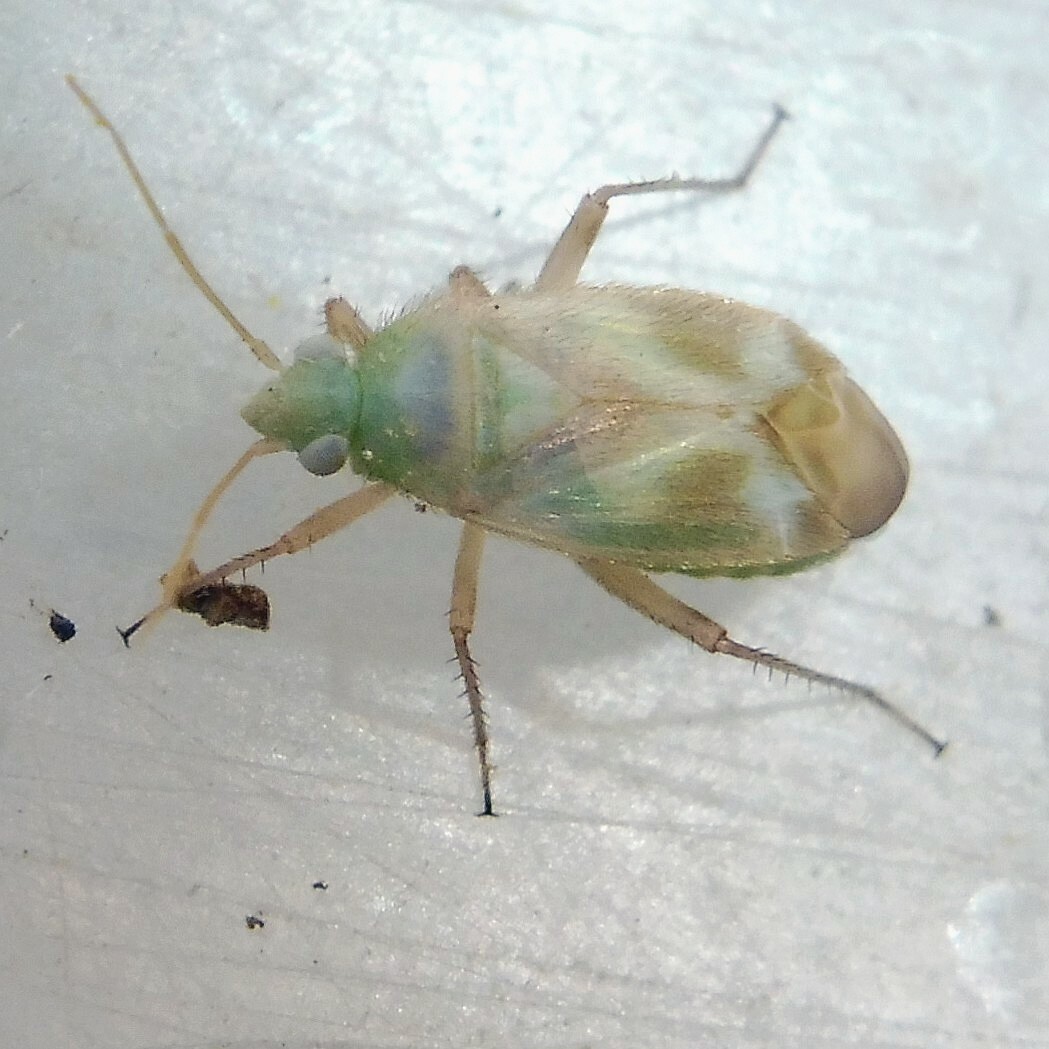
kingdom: Animalia
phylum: Arthropoda
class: Insecta
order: Hemiptera
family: Miridae
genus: Megalocoleus
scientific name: Megalocoleus molliculus
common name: Plant bug
